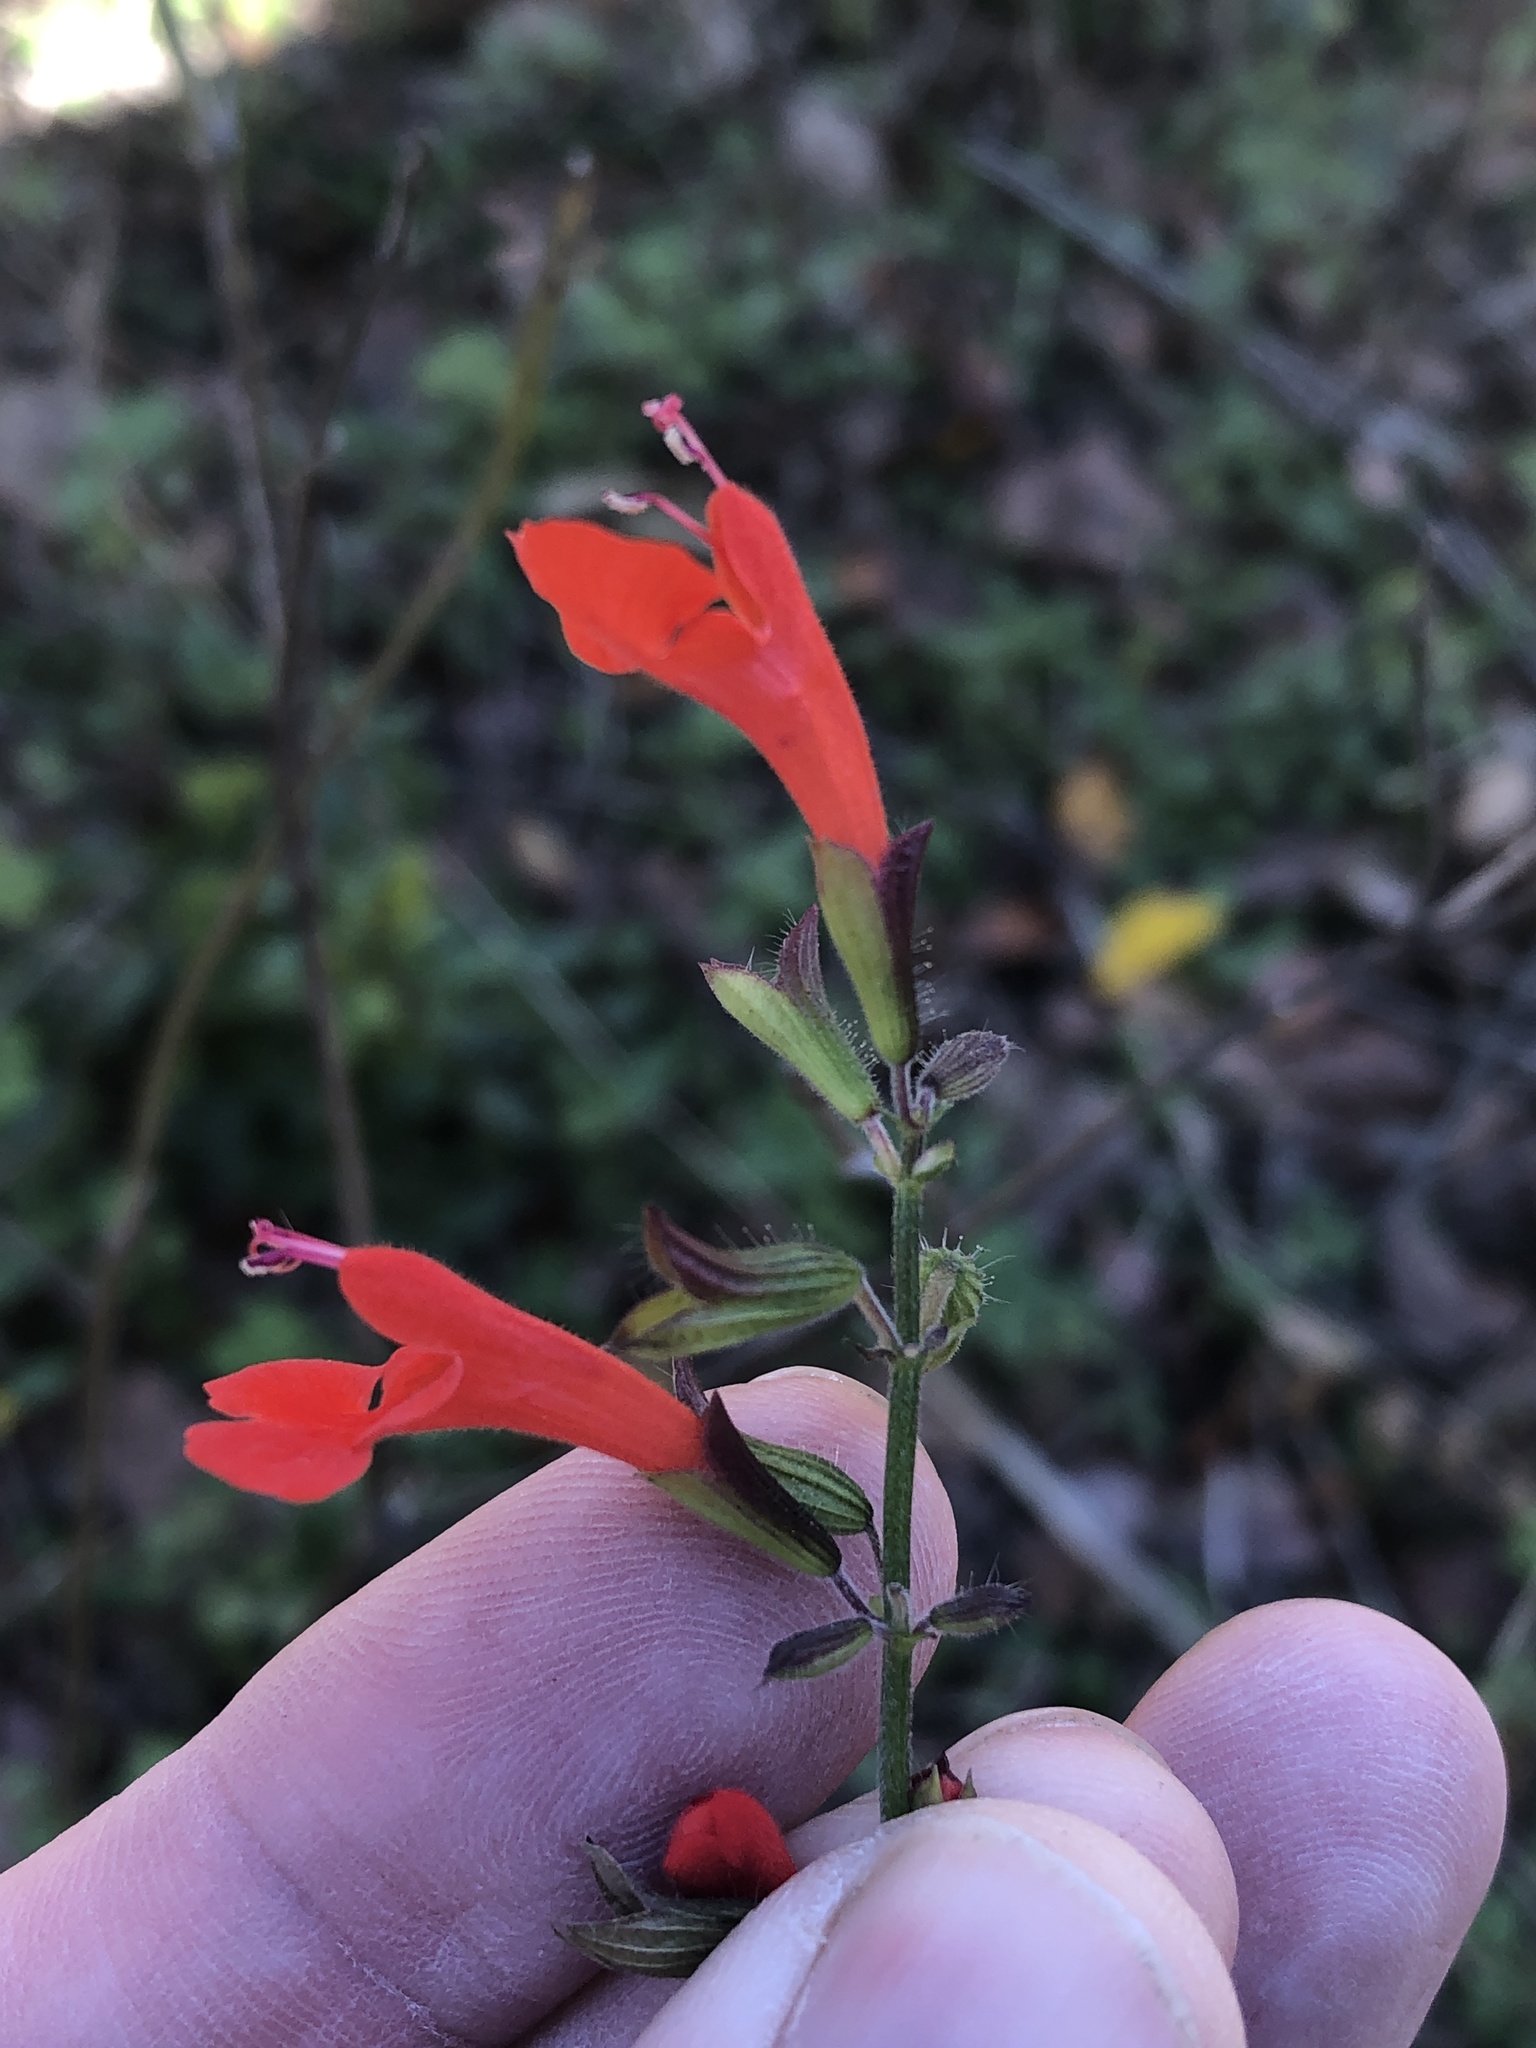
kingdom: Plantae
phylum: Tracheophyta
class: Magnoliopsida
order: Lamiales
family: Lamiaceae
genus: Salvia
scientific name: Salvia coccinea
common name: Blood sage
